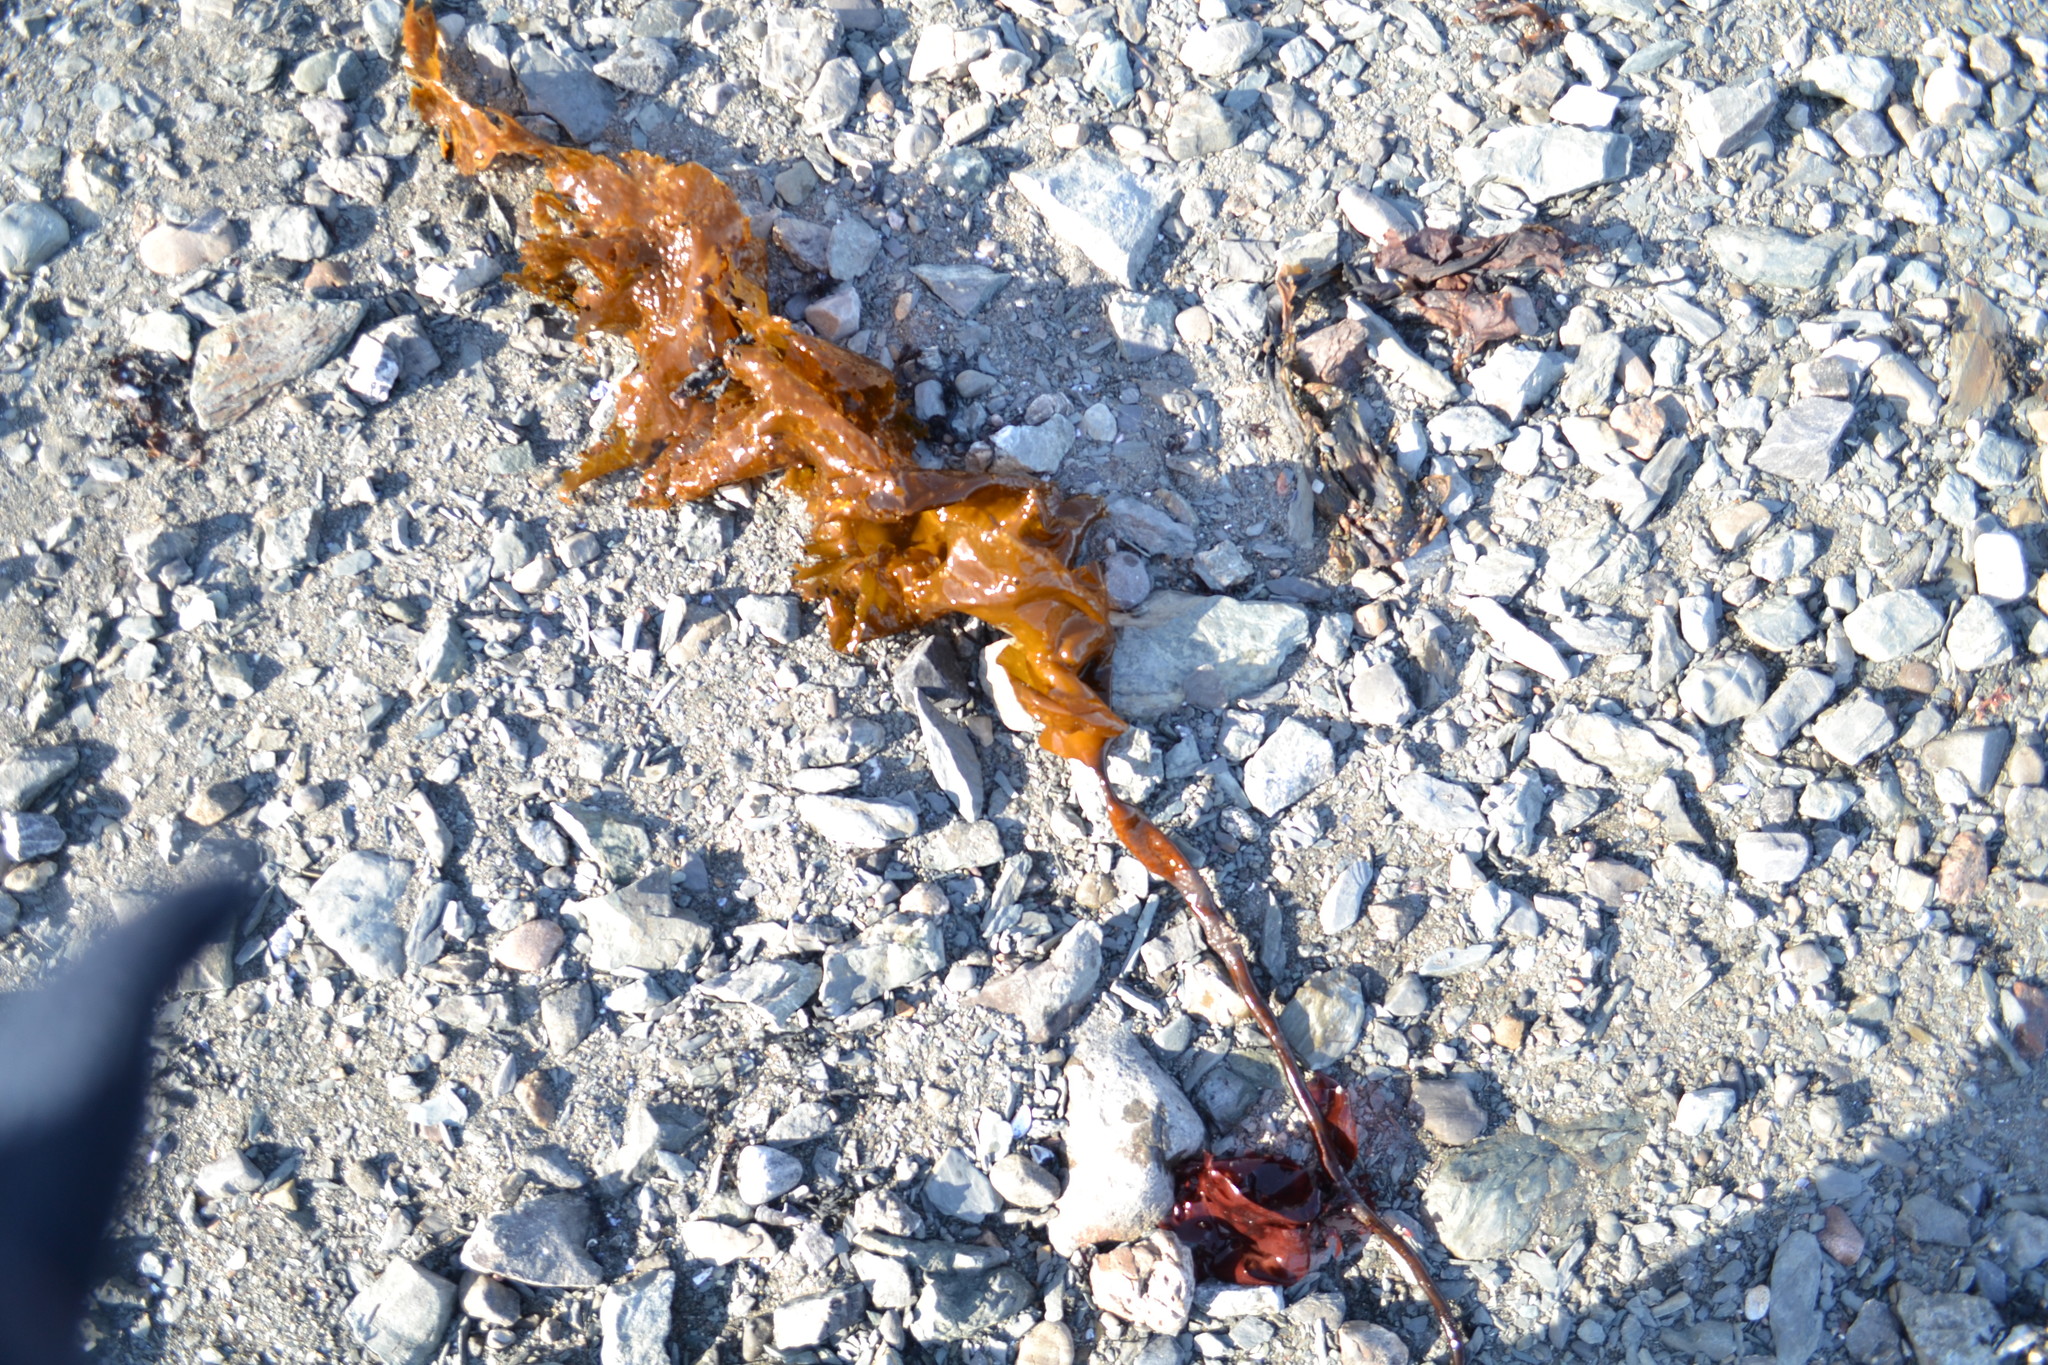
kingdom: Chromista
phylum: Ochrophyta
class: Phaeophyceae
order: Laminariales
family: Laminariaceae
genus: Saccharina
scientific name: Saccharina latissima
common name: Poor man's weather glass
